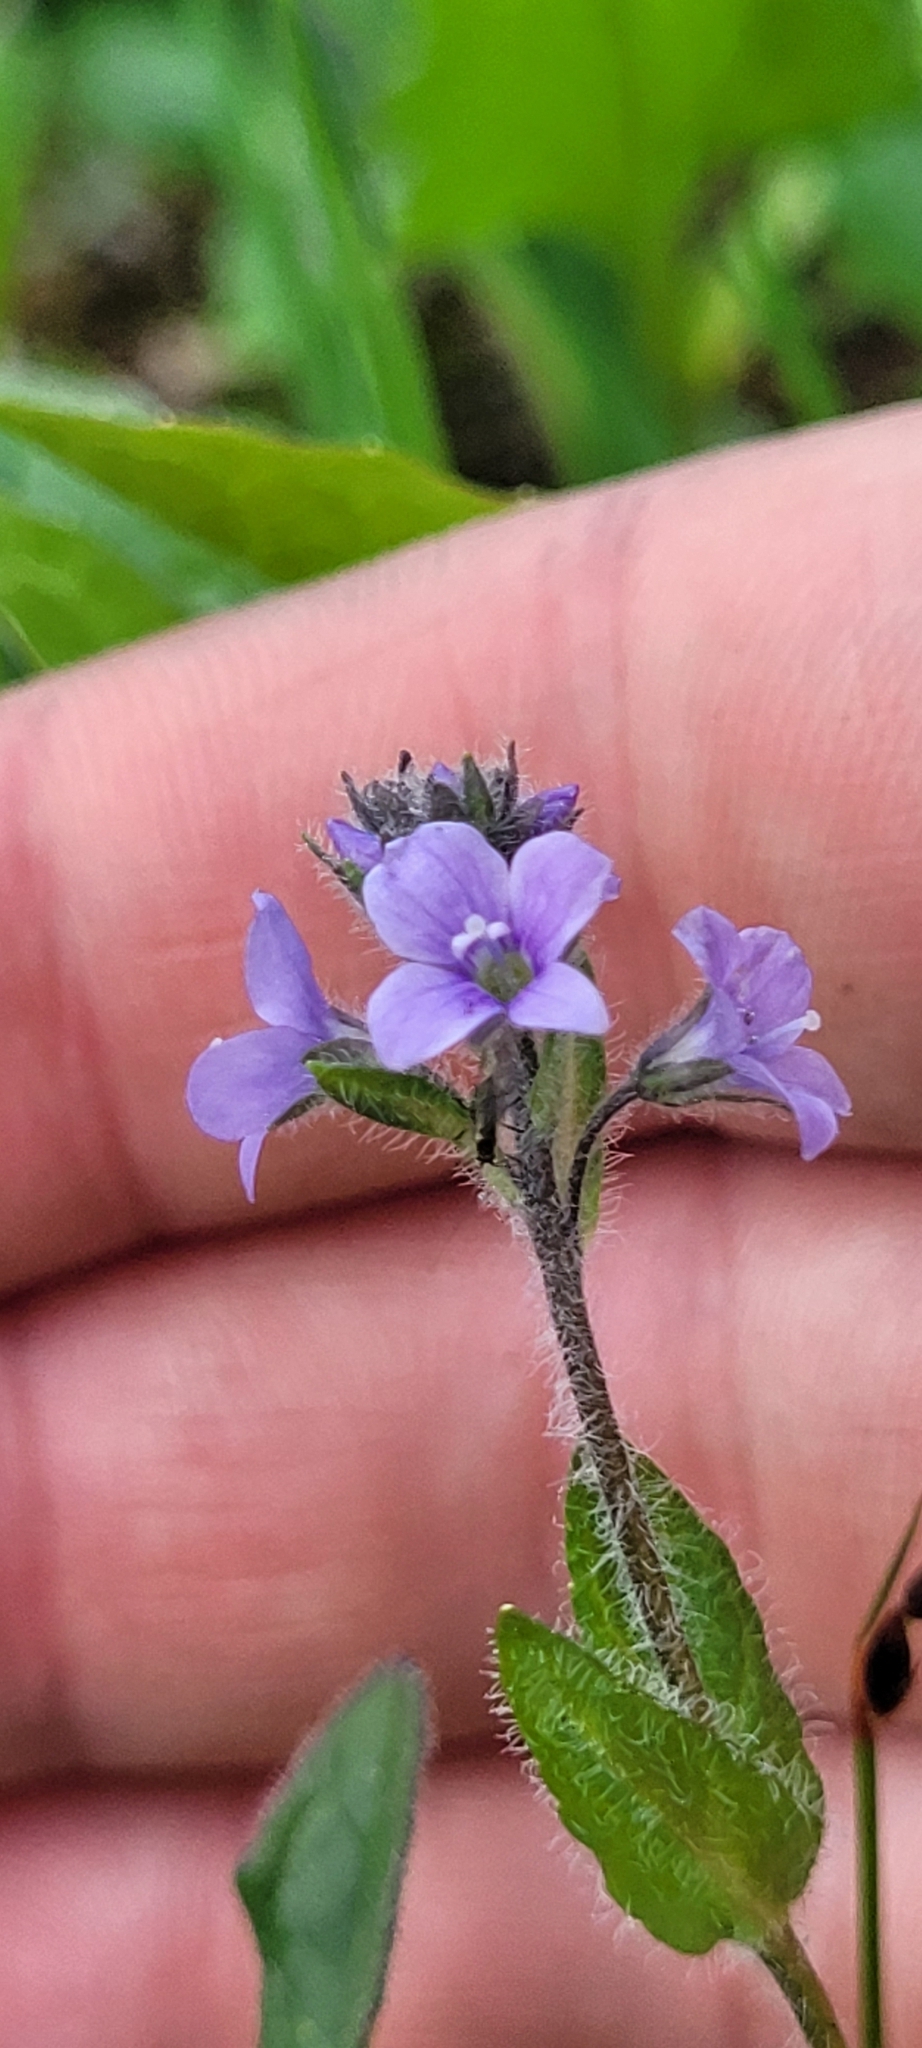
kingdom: Plantae
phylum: Tracheophyta
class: Magnoliopsida
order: Lamiales
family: Plantaginaceae
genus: Veronica
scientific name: Veronica wormskjoldii
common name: American alpine speedwell
